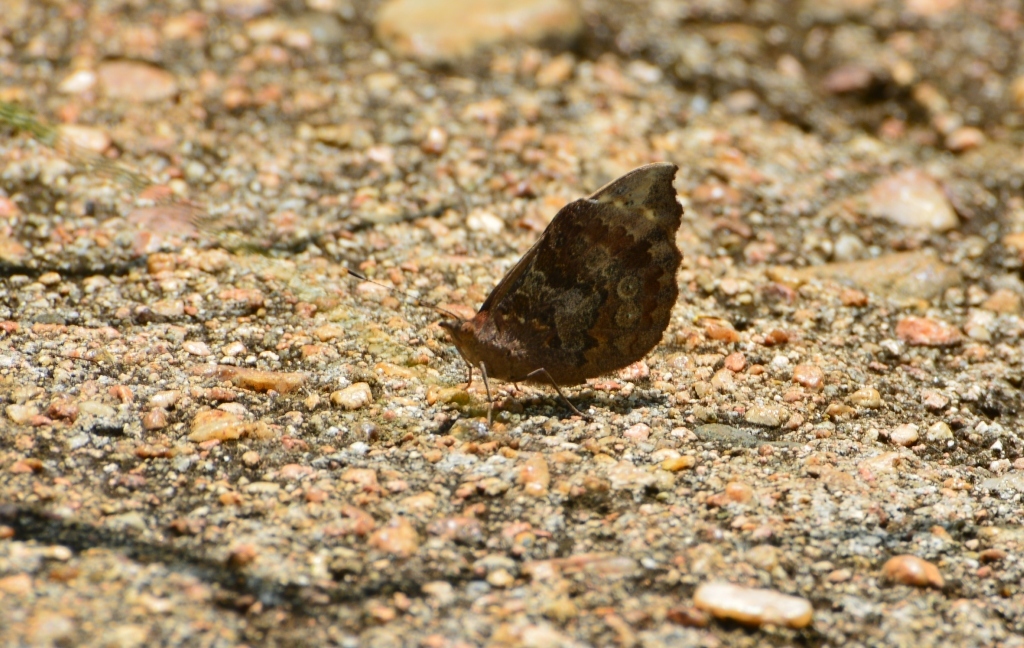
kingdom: Animalia
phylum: Arthropoda
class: Insecta
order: Lepidoptera
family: Nymphalidae
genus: Eunica
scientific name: Eunica tatila
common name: Florida purplewing
